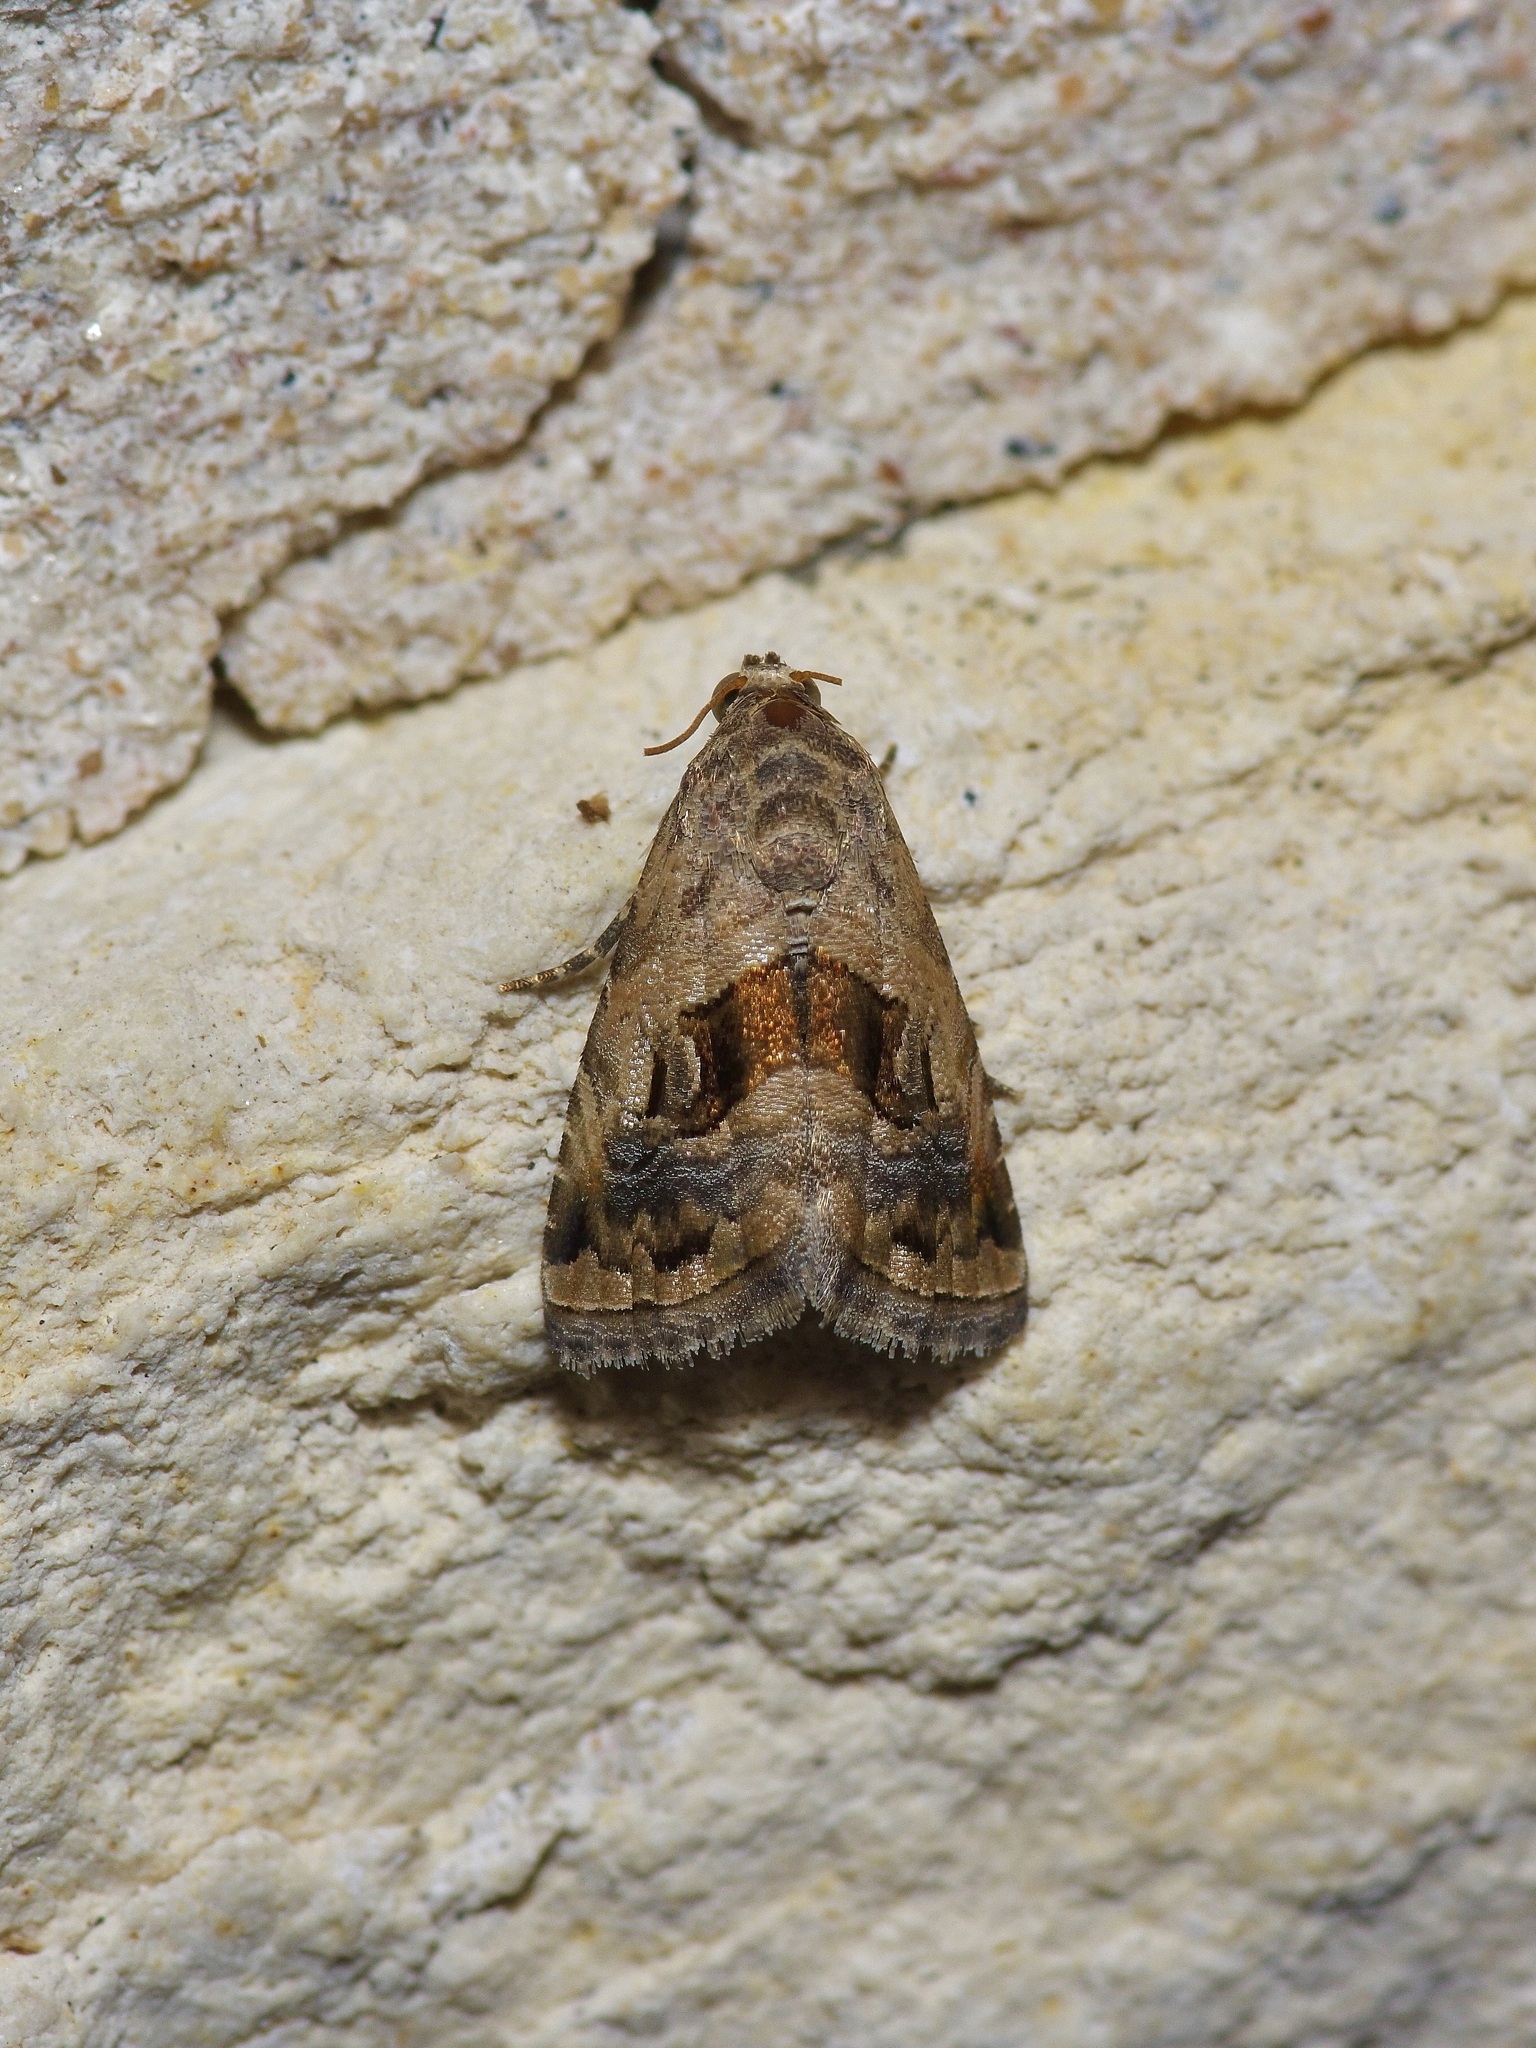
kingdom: Animalia
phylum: Arthropoda
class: Insecta
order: Lepidoptera
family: Noctuidae
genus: Tripudia
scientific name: Tripudia quadrifera
